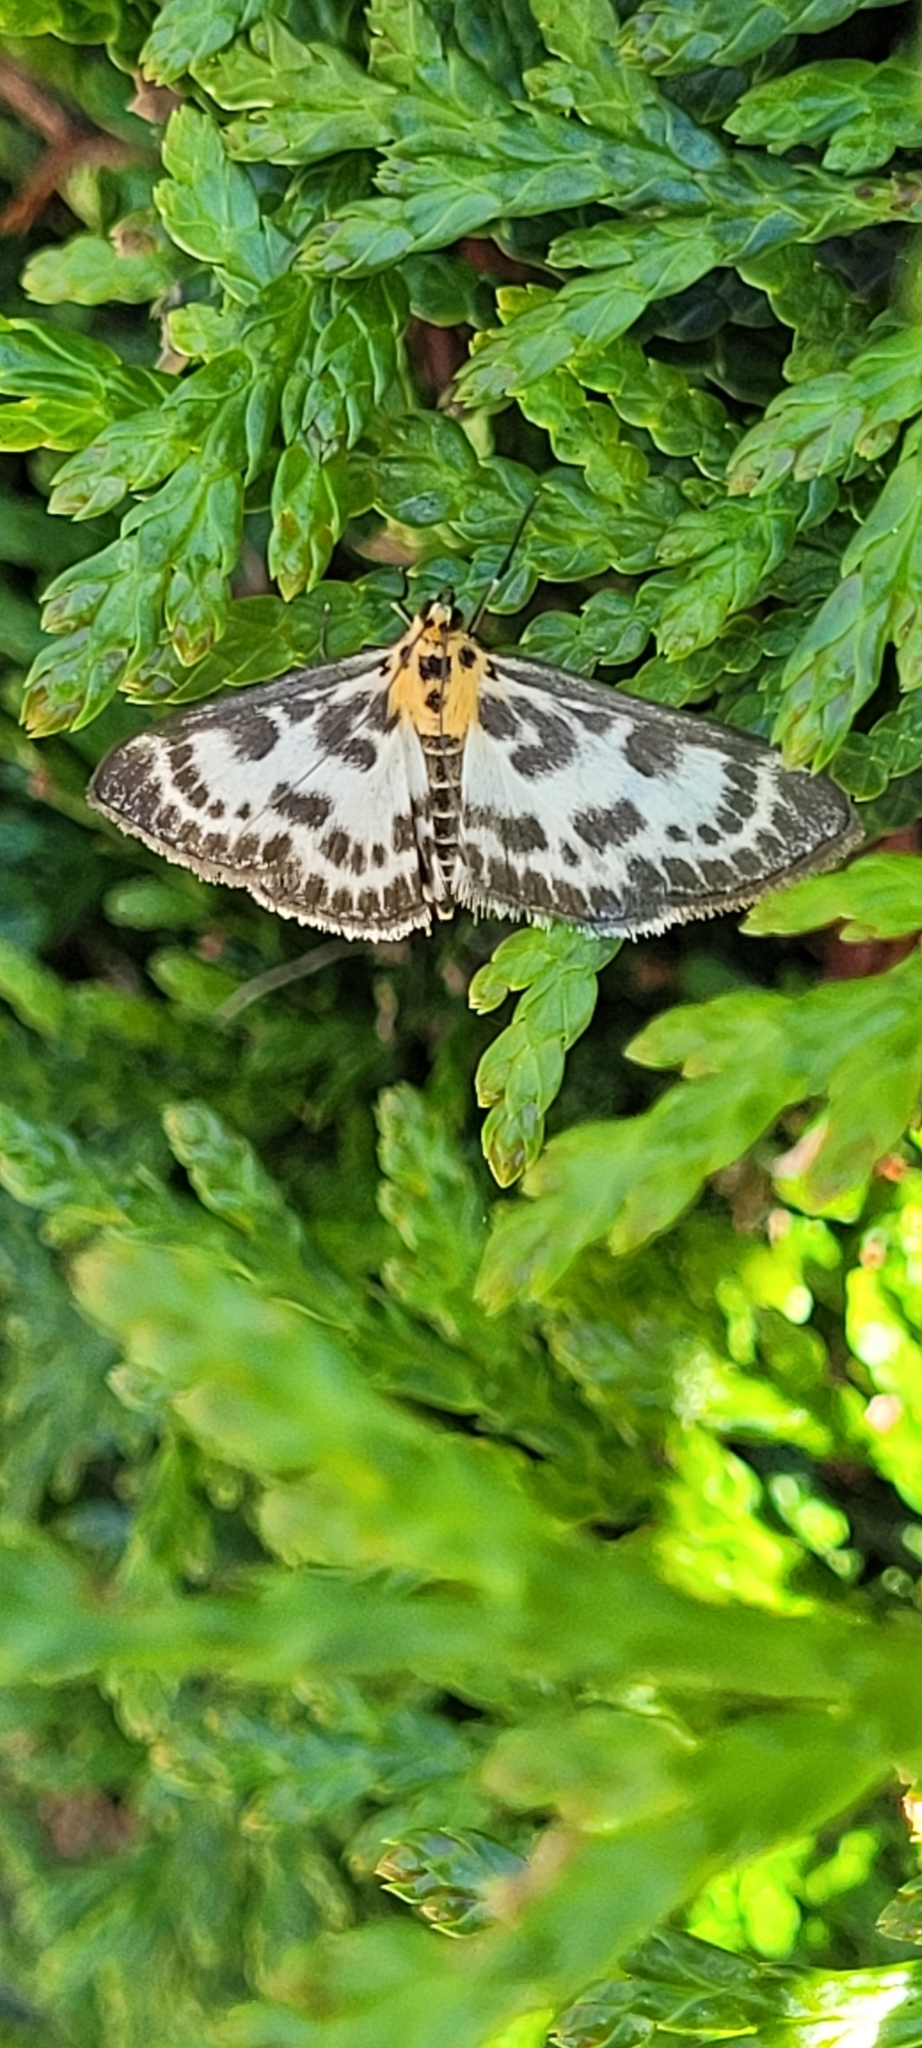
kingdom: Animalia
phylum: Arthropoda
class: Insecta
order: Lepidoptera
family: Crambidae
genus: Anania
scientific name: Anania hortulata
